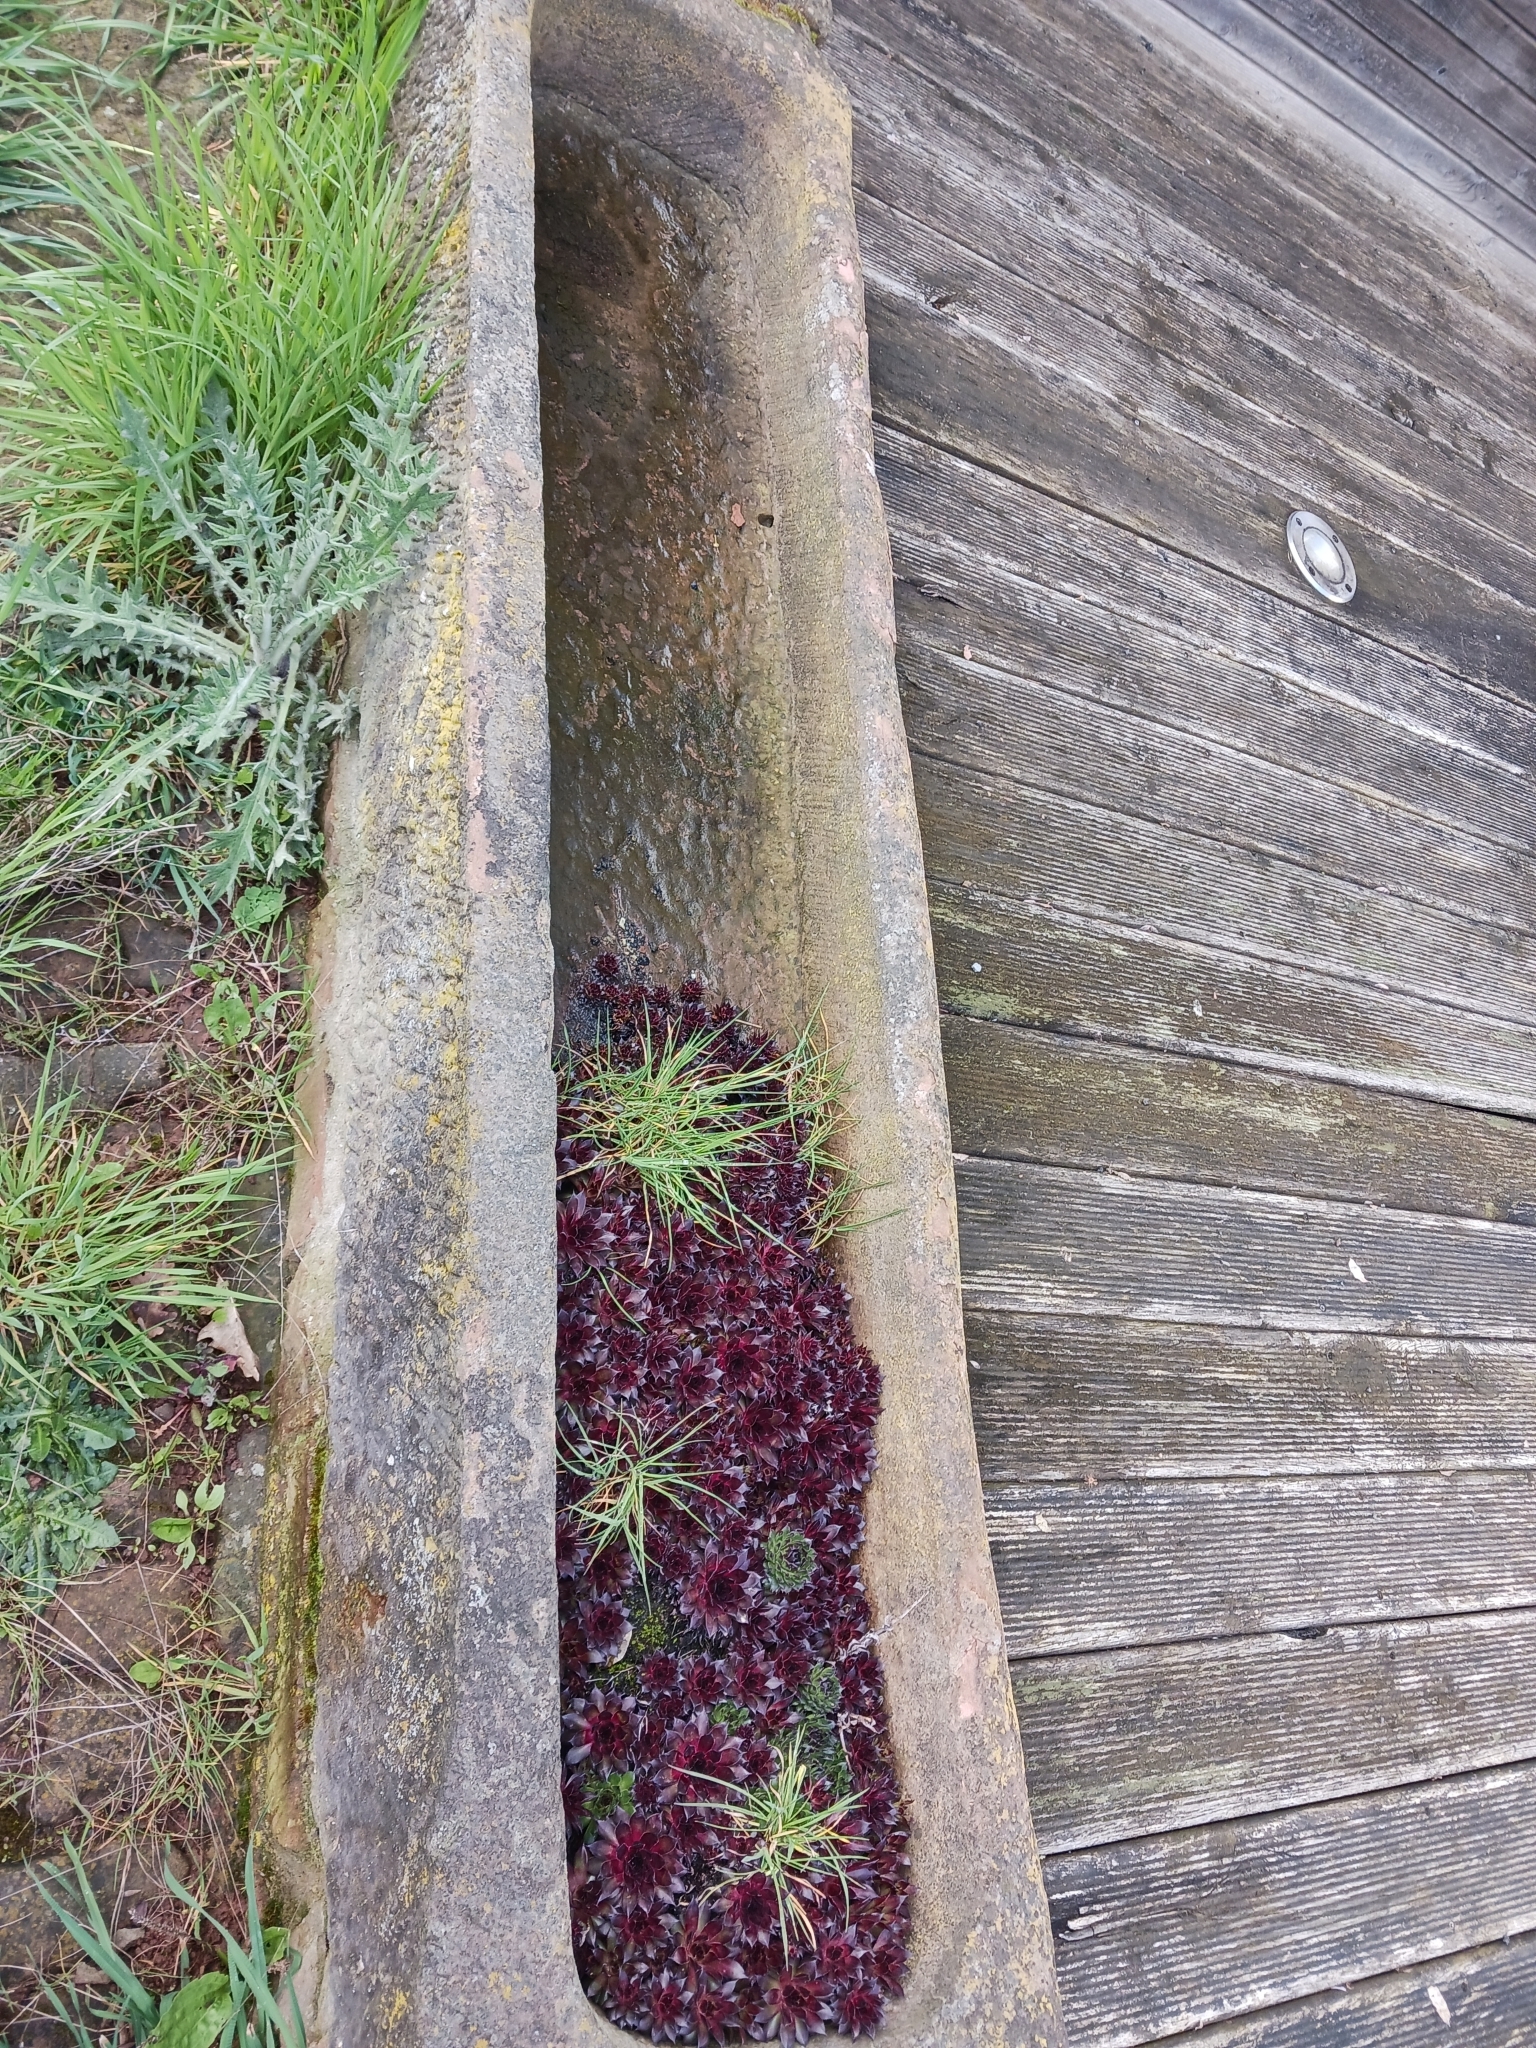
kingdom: Plantae
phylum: Tracheophyta
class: Magnoliopsida
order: Saxifragales
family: Crassulaceae
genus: Sempervivum
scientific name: Sempervivum tectorum
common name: House-leek
